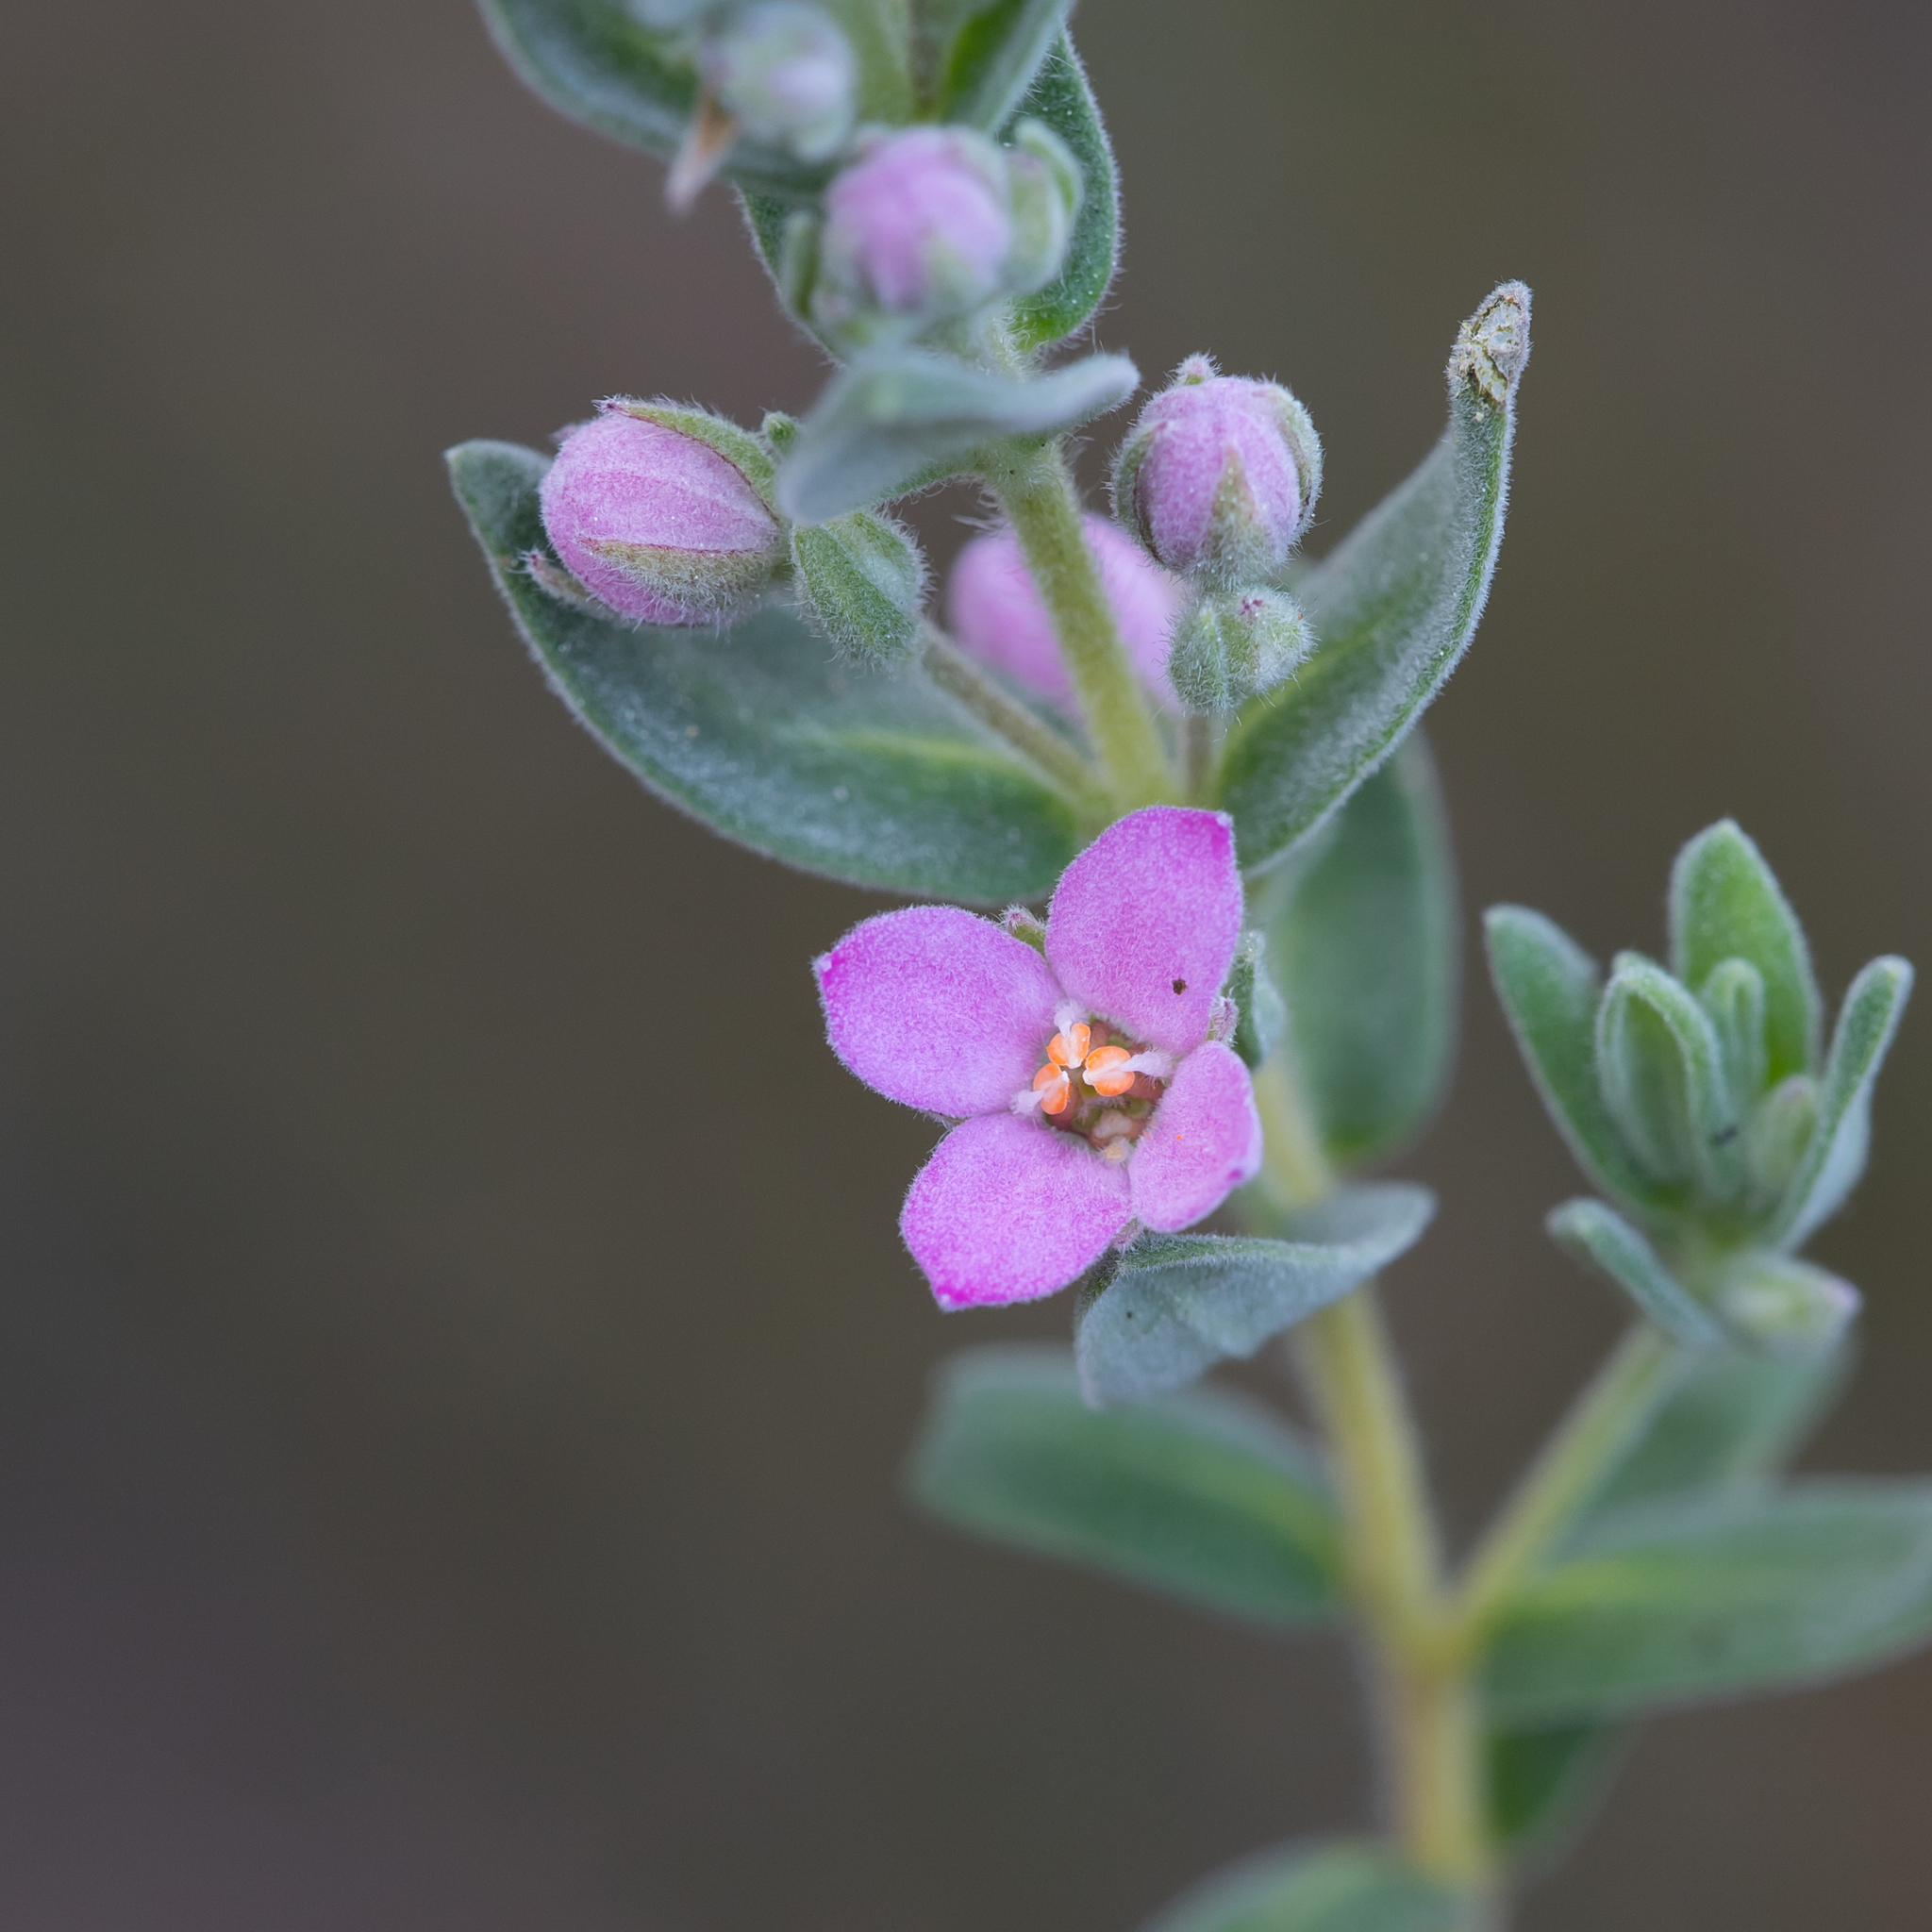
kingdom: Plantae
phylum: Tracheophyta
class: Magnoliopsida
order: Sapindales
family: Rutaceae
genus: Zieria
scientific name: Zieria veronicea
